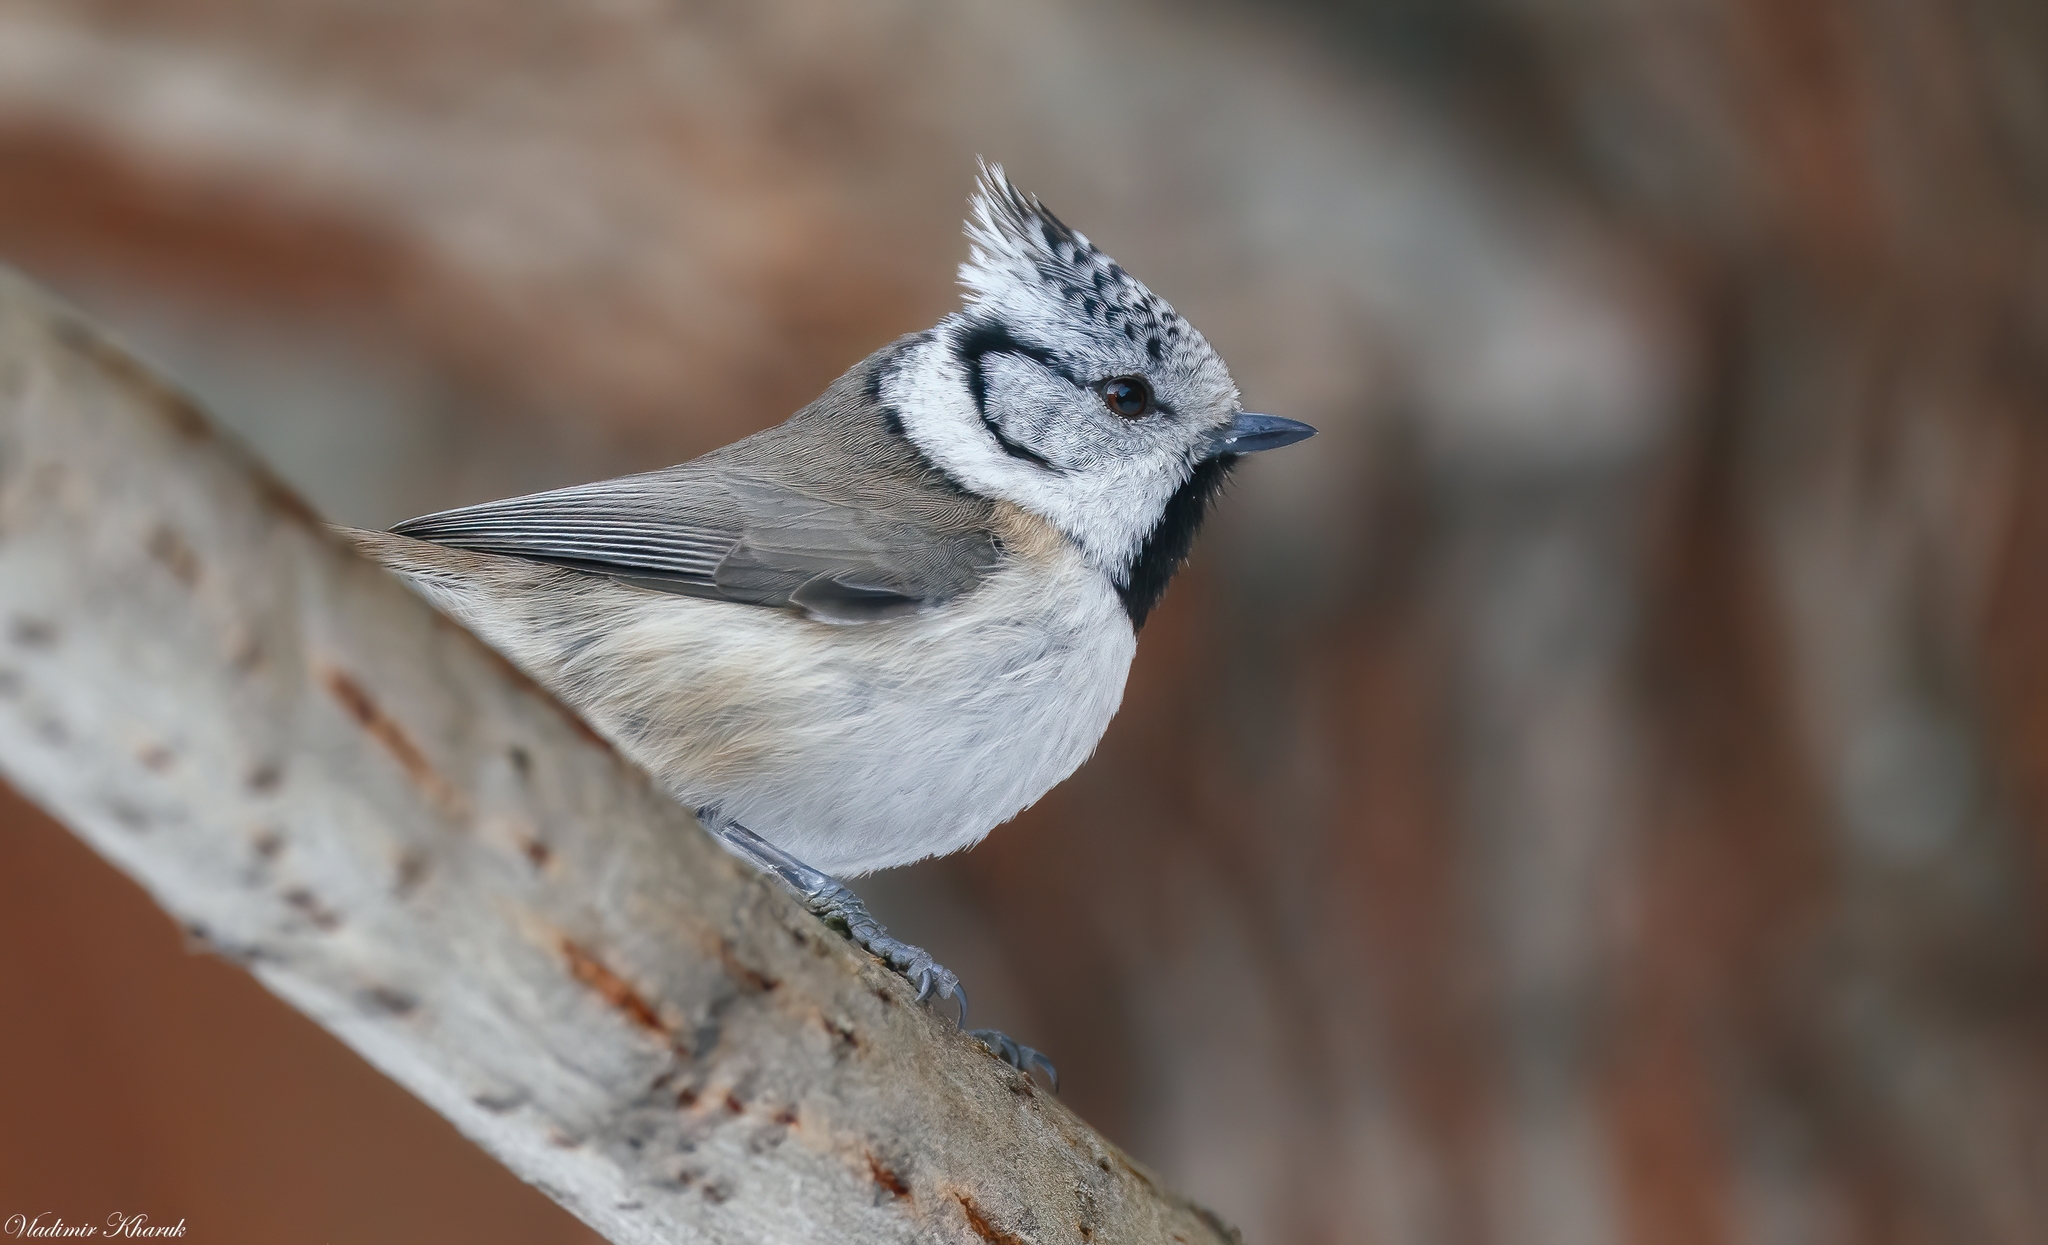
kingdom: Animalia
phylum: Chordata
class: Aves
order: Passeriformes
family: Paridae
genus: Lophophanes
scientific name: Lophophanes cristatus
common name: European crested tit
